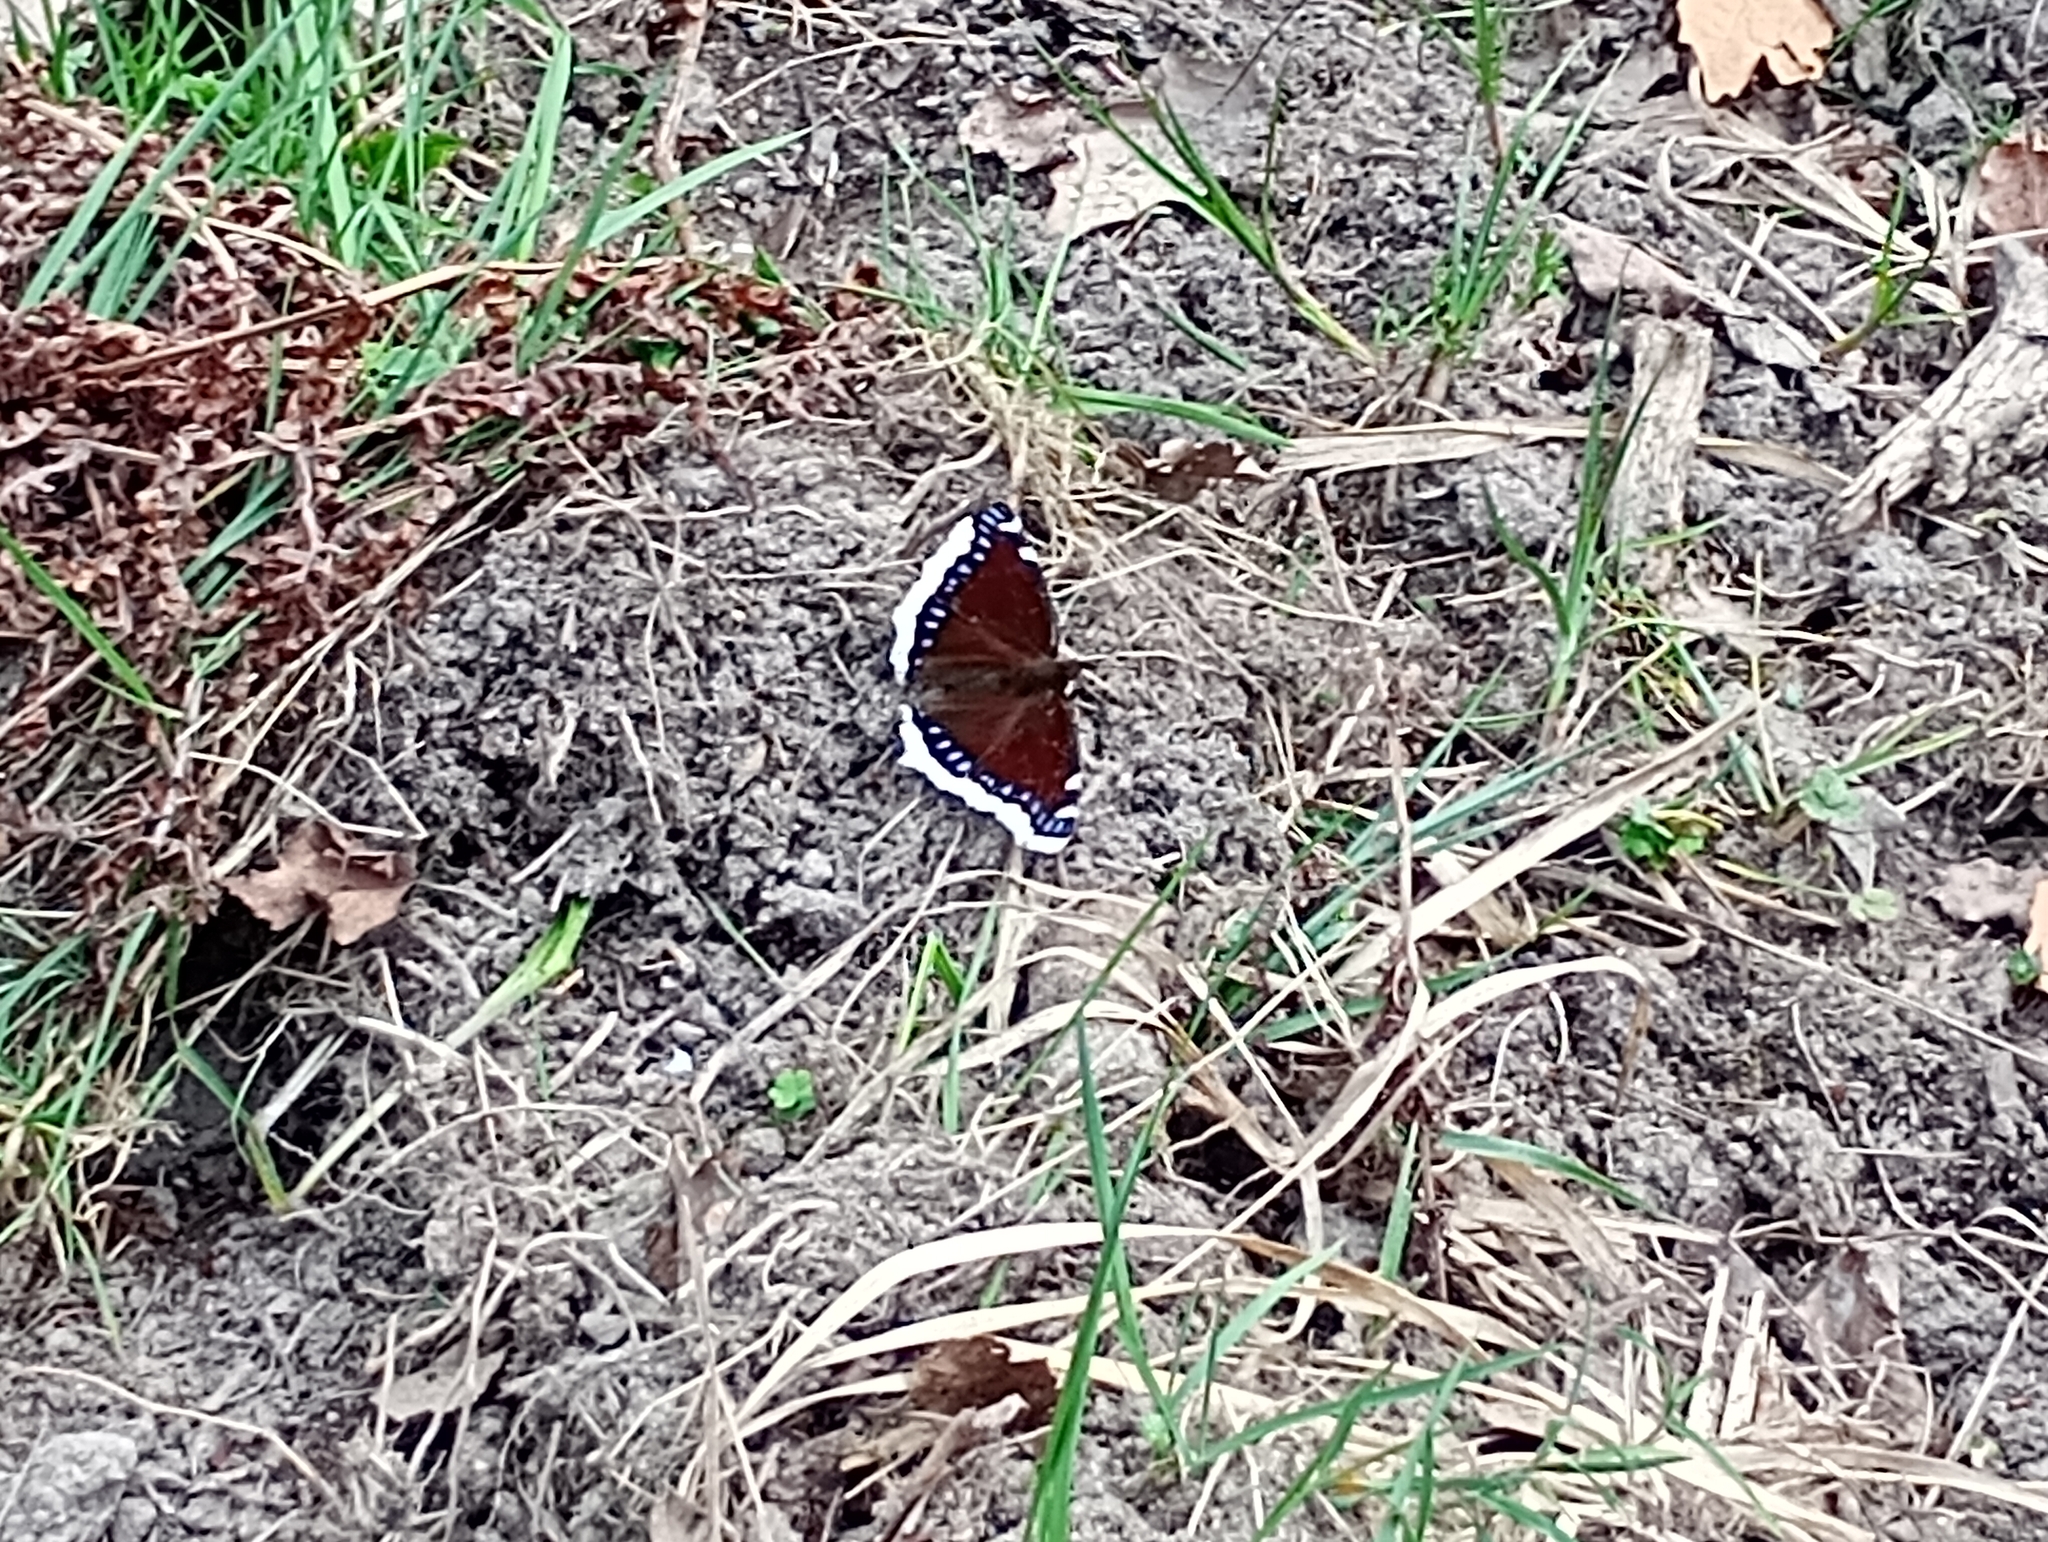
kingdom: Animalia
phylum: Arthropoda
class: Insecta
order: Lepidoptera
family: Nymphalidae
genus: Nymphalis
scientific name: Nymphalis antiopa
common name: Camberwell beauty
